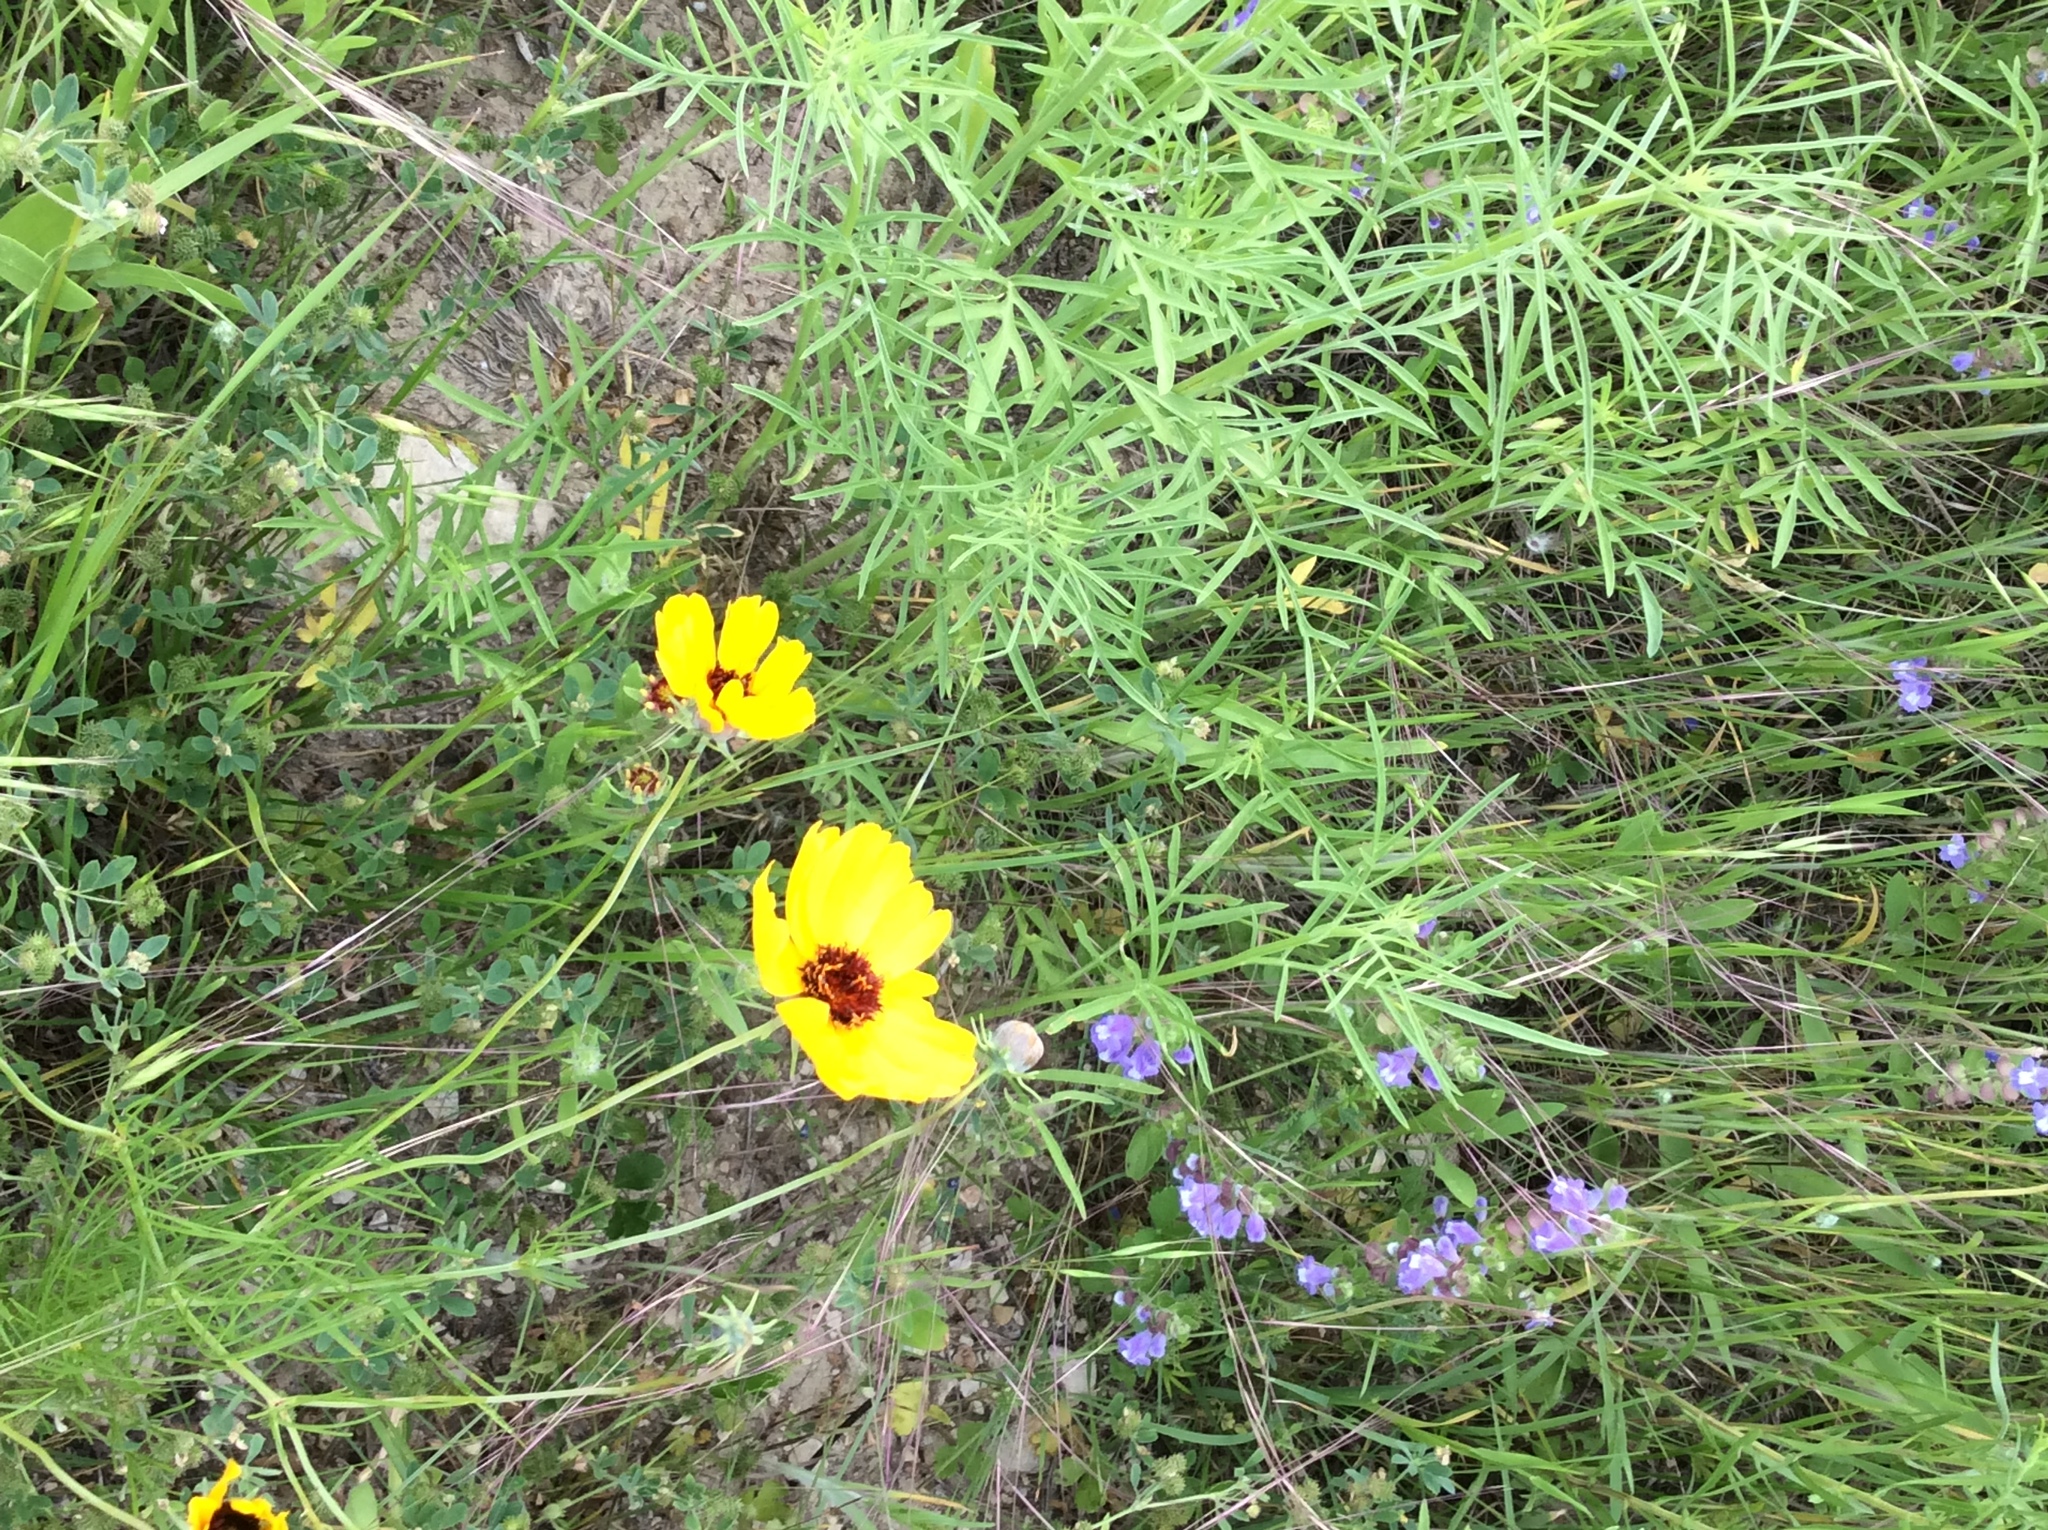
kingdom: Plantae
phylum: Tracheophyta
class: Magnoliopsida
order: Asterales
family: Asteraceae
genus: Thelesperma
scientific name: Thelesperma filifolium
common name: Stiff greenthread
